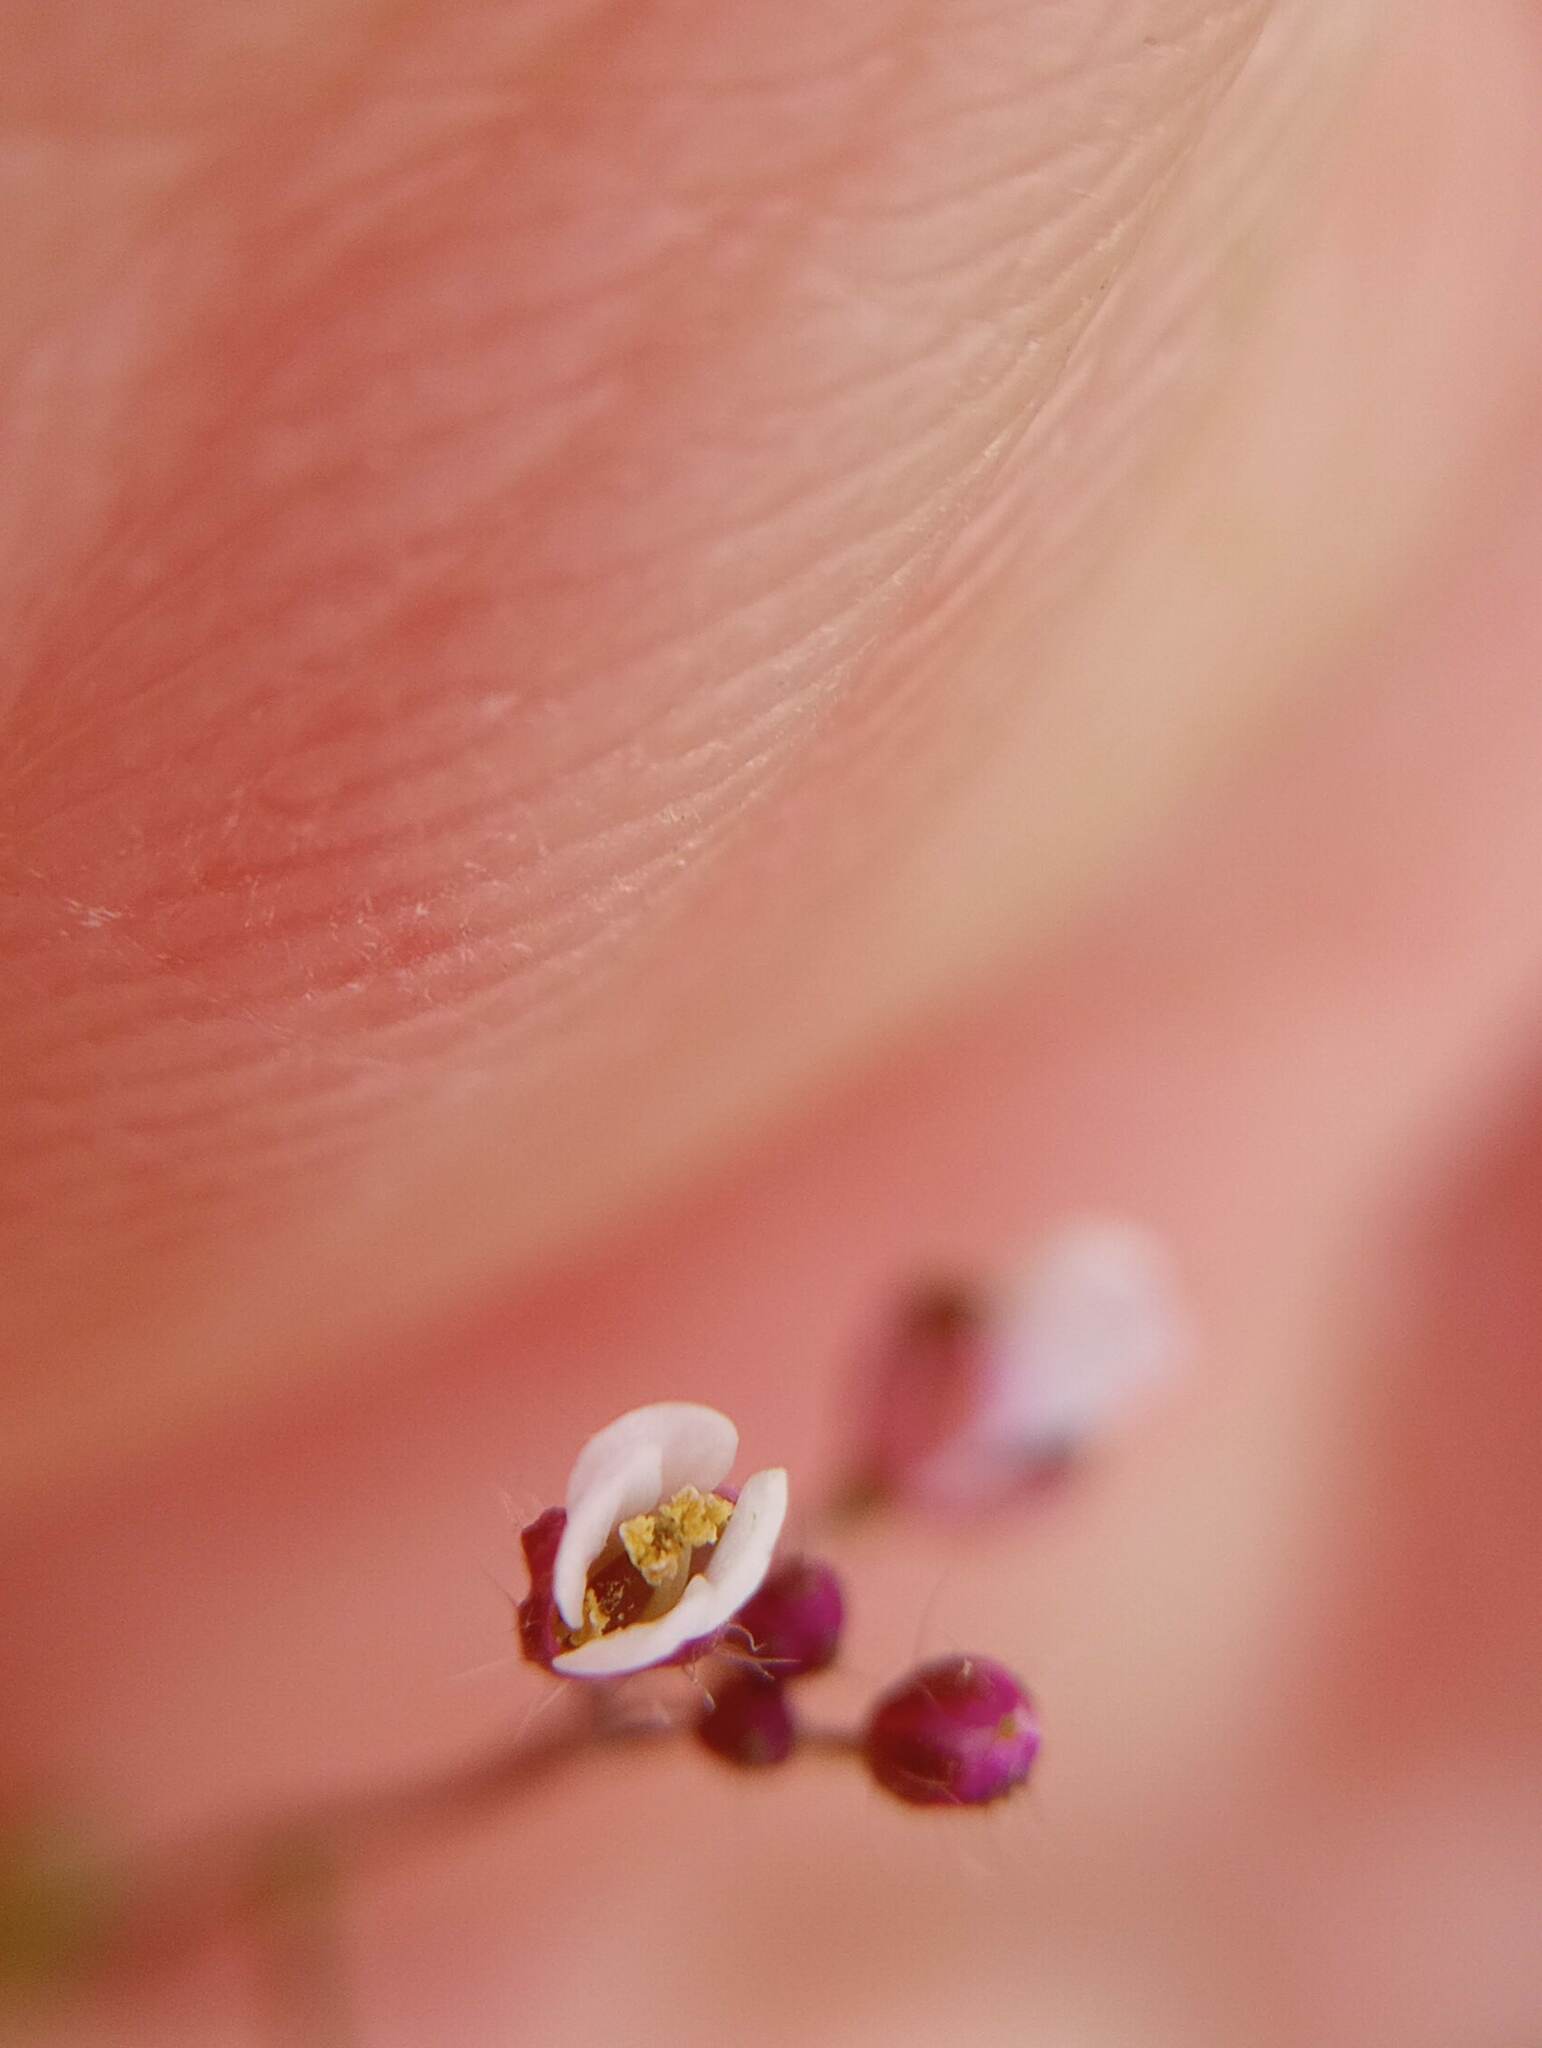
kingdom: Plantae
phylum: Tracheophyta
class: Magnoliopsida
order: Brassicales
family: Brassicaceae
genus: Capsella
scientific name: Capsella bursa-pastoris
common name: Shepherd's purse
